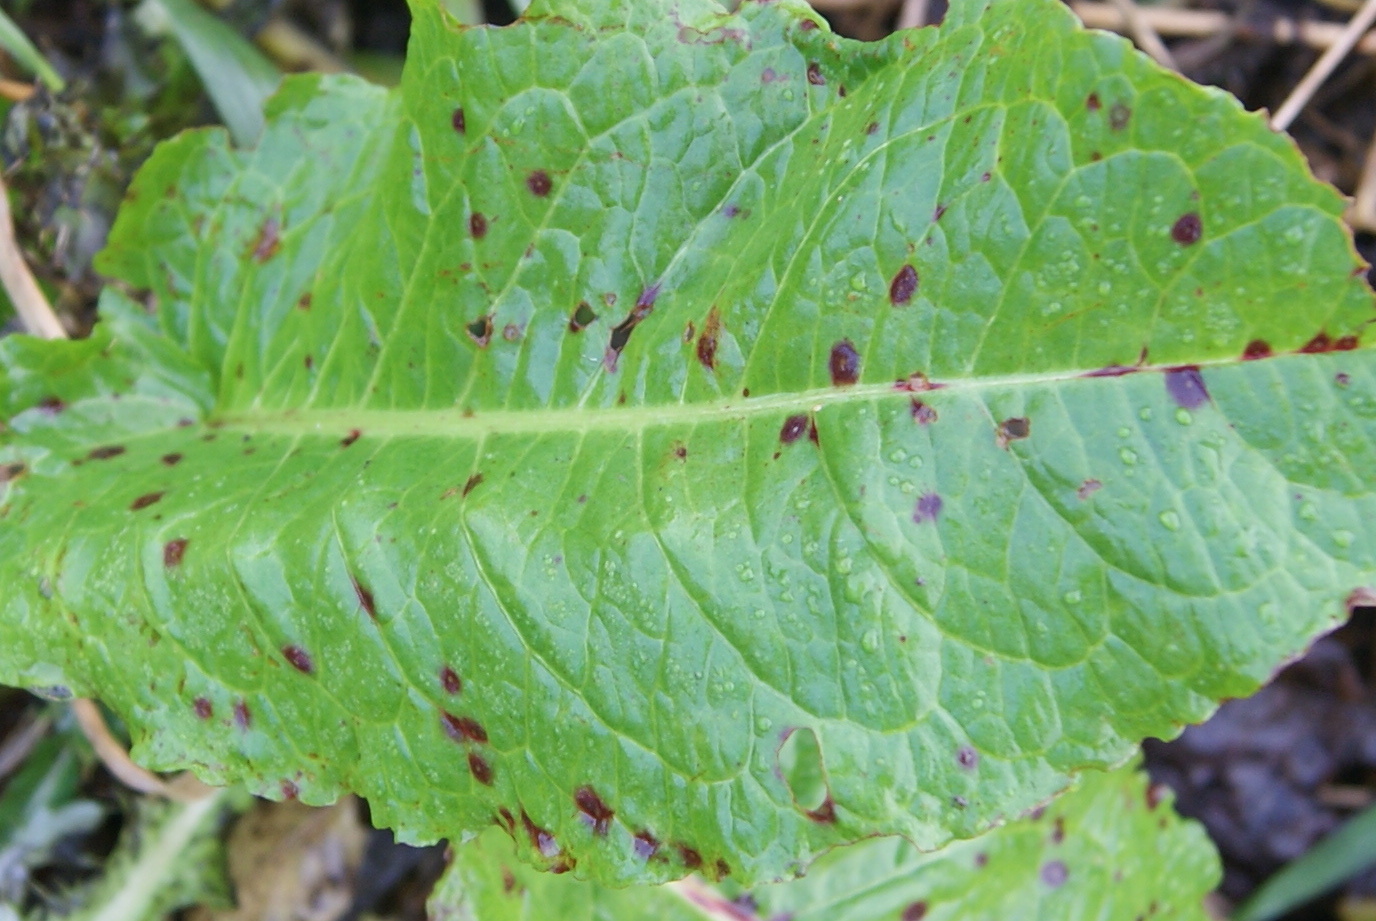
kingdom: Fungi
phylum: Ascomycota
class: Dothideomycetes
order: Mycosphaerellales
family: Mycosphaerellaceae
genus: Ramularia
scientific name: Ramularia rubella
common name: Red dock spot
